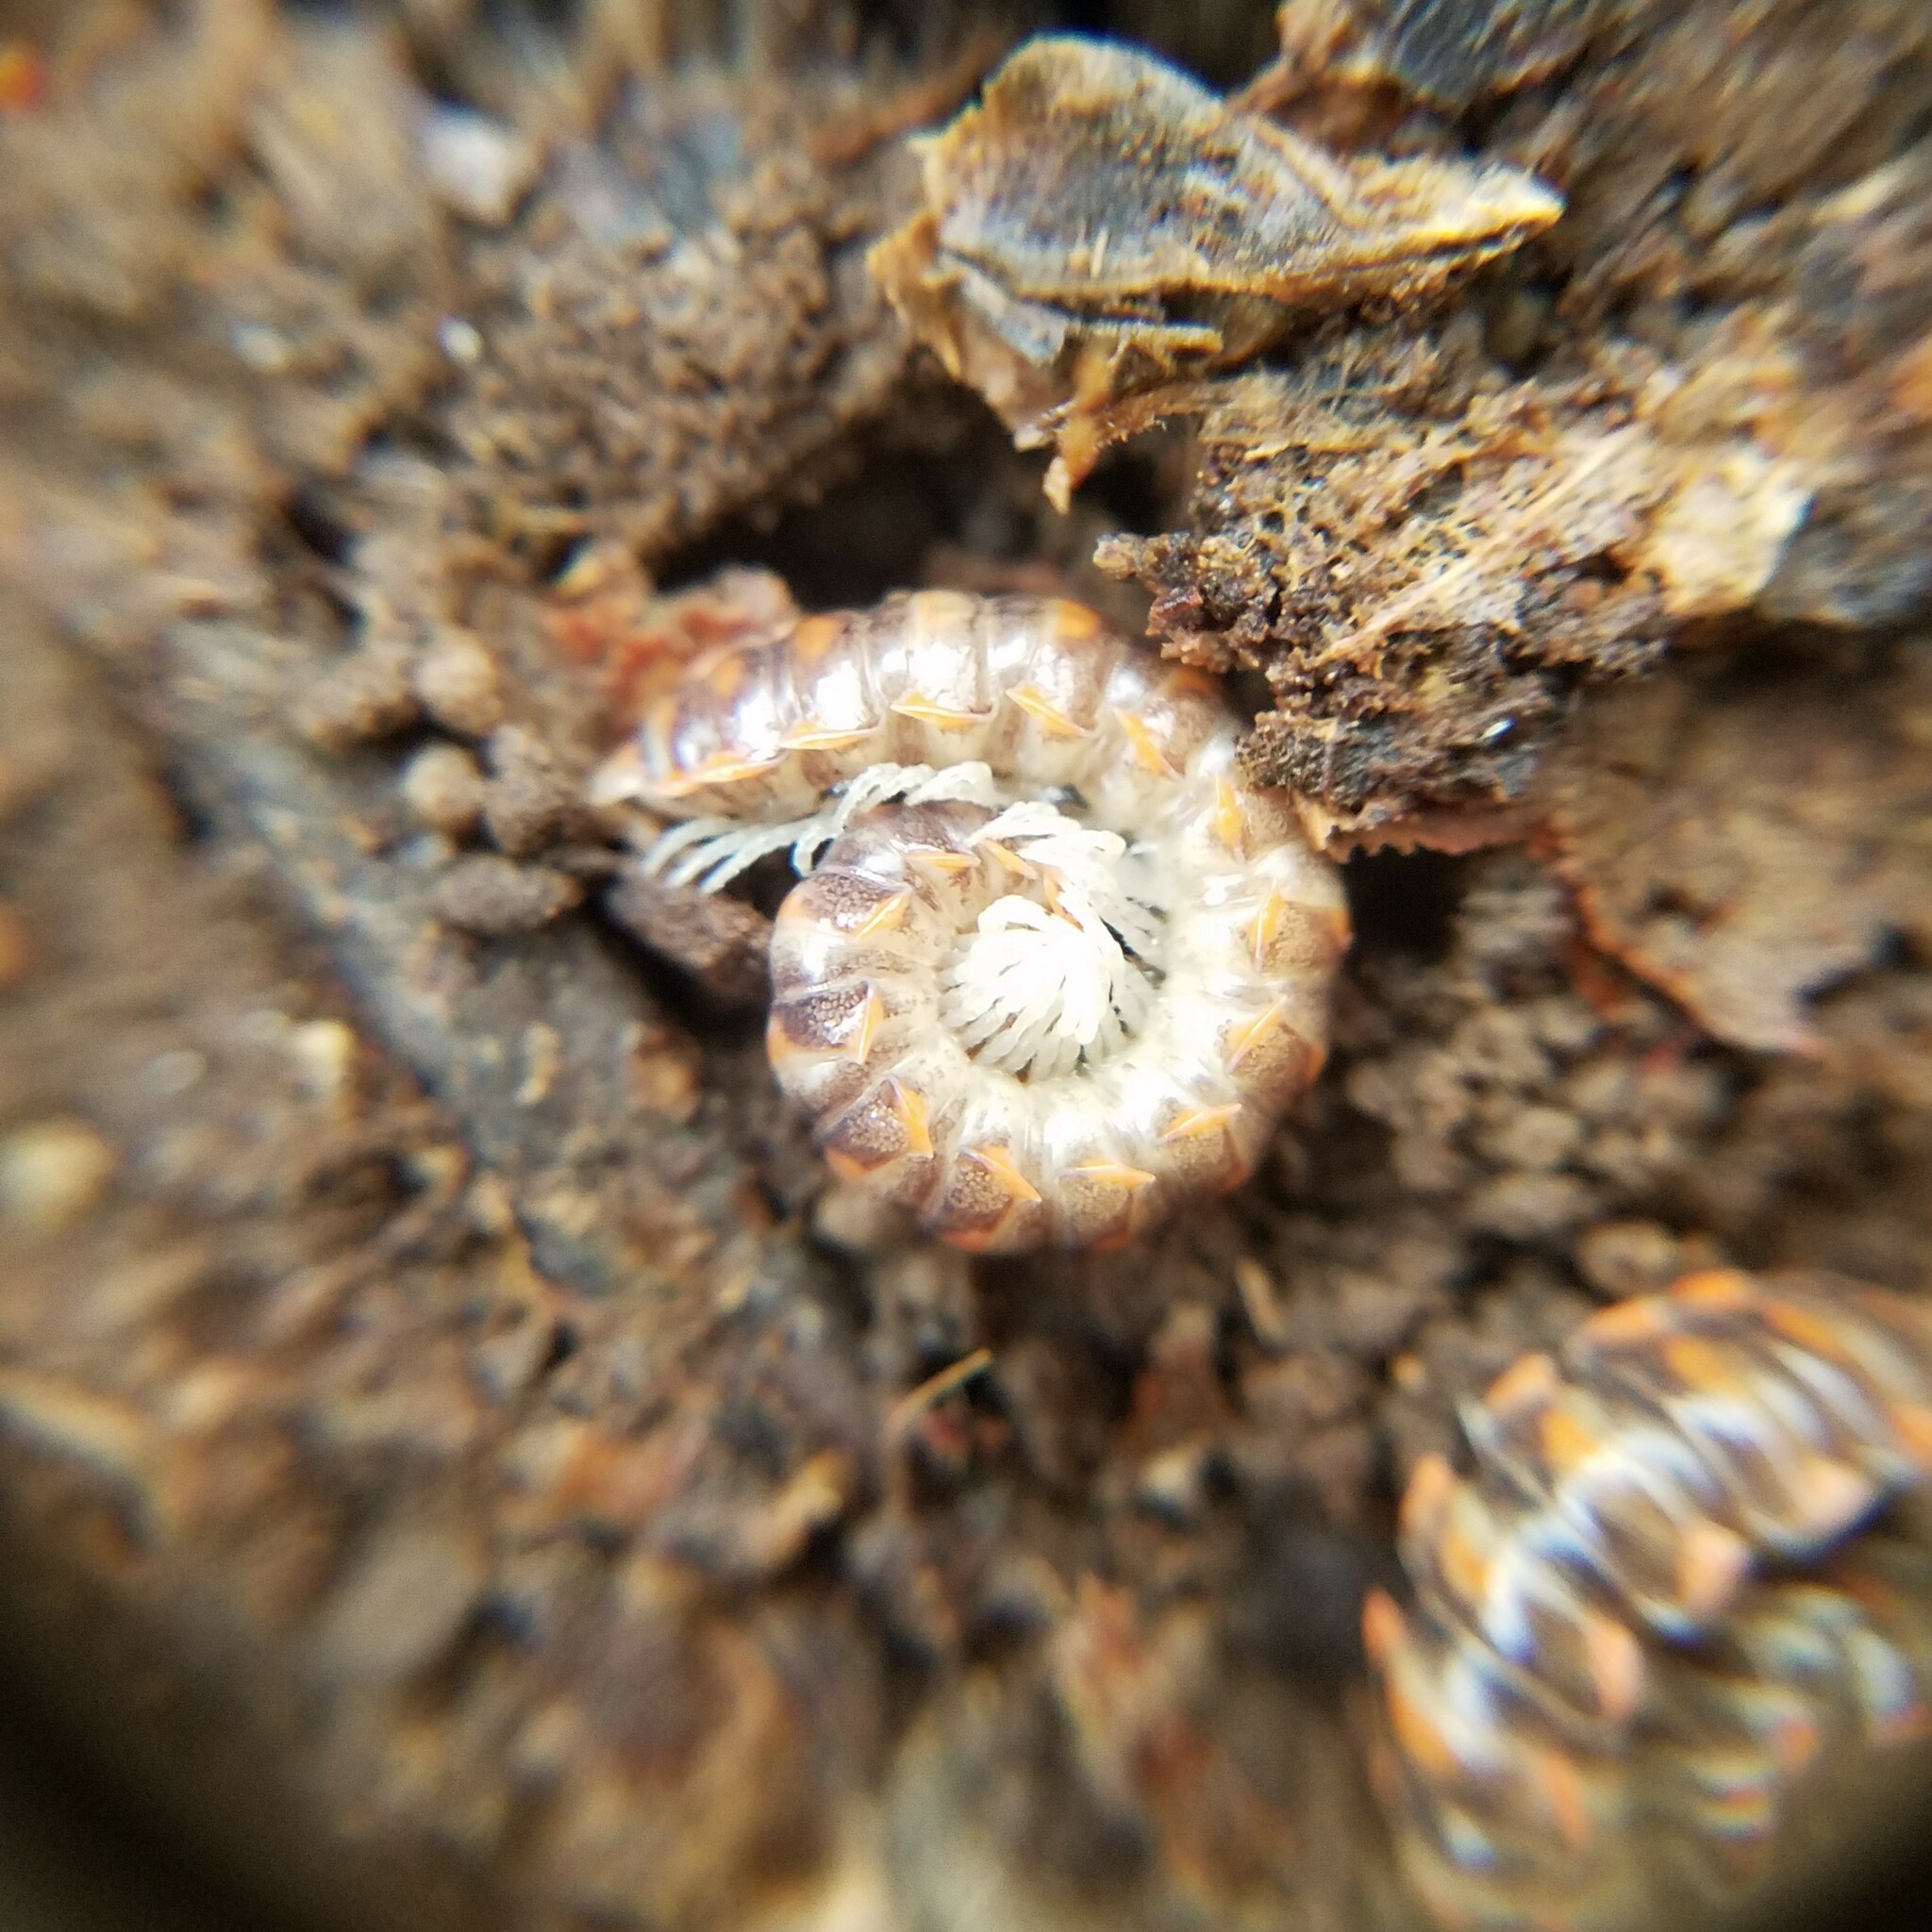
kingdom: Animalia
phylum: Arthropoda
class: Diplopoda
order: Polydesmida
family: Xystodesmidae
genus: Euryurus
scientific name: Euryurus maculatus
